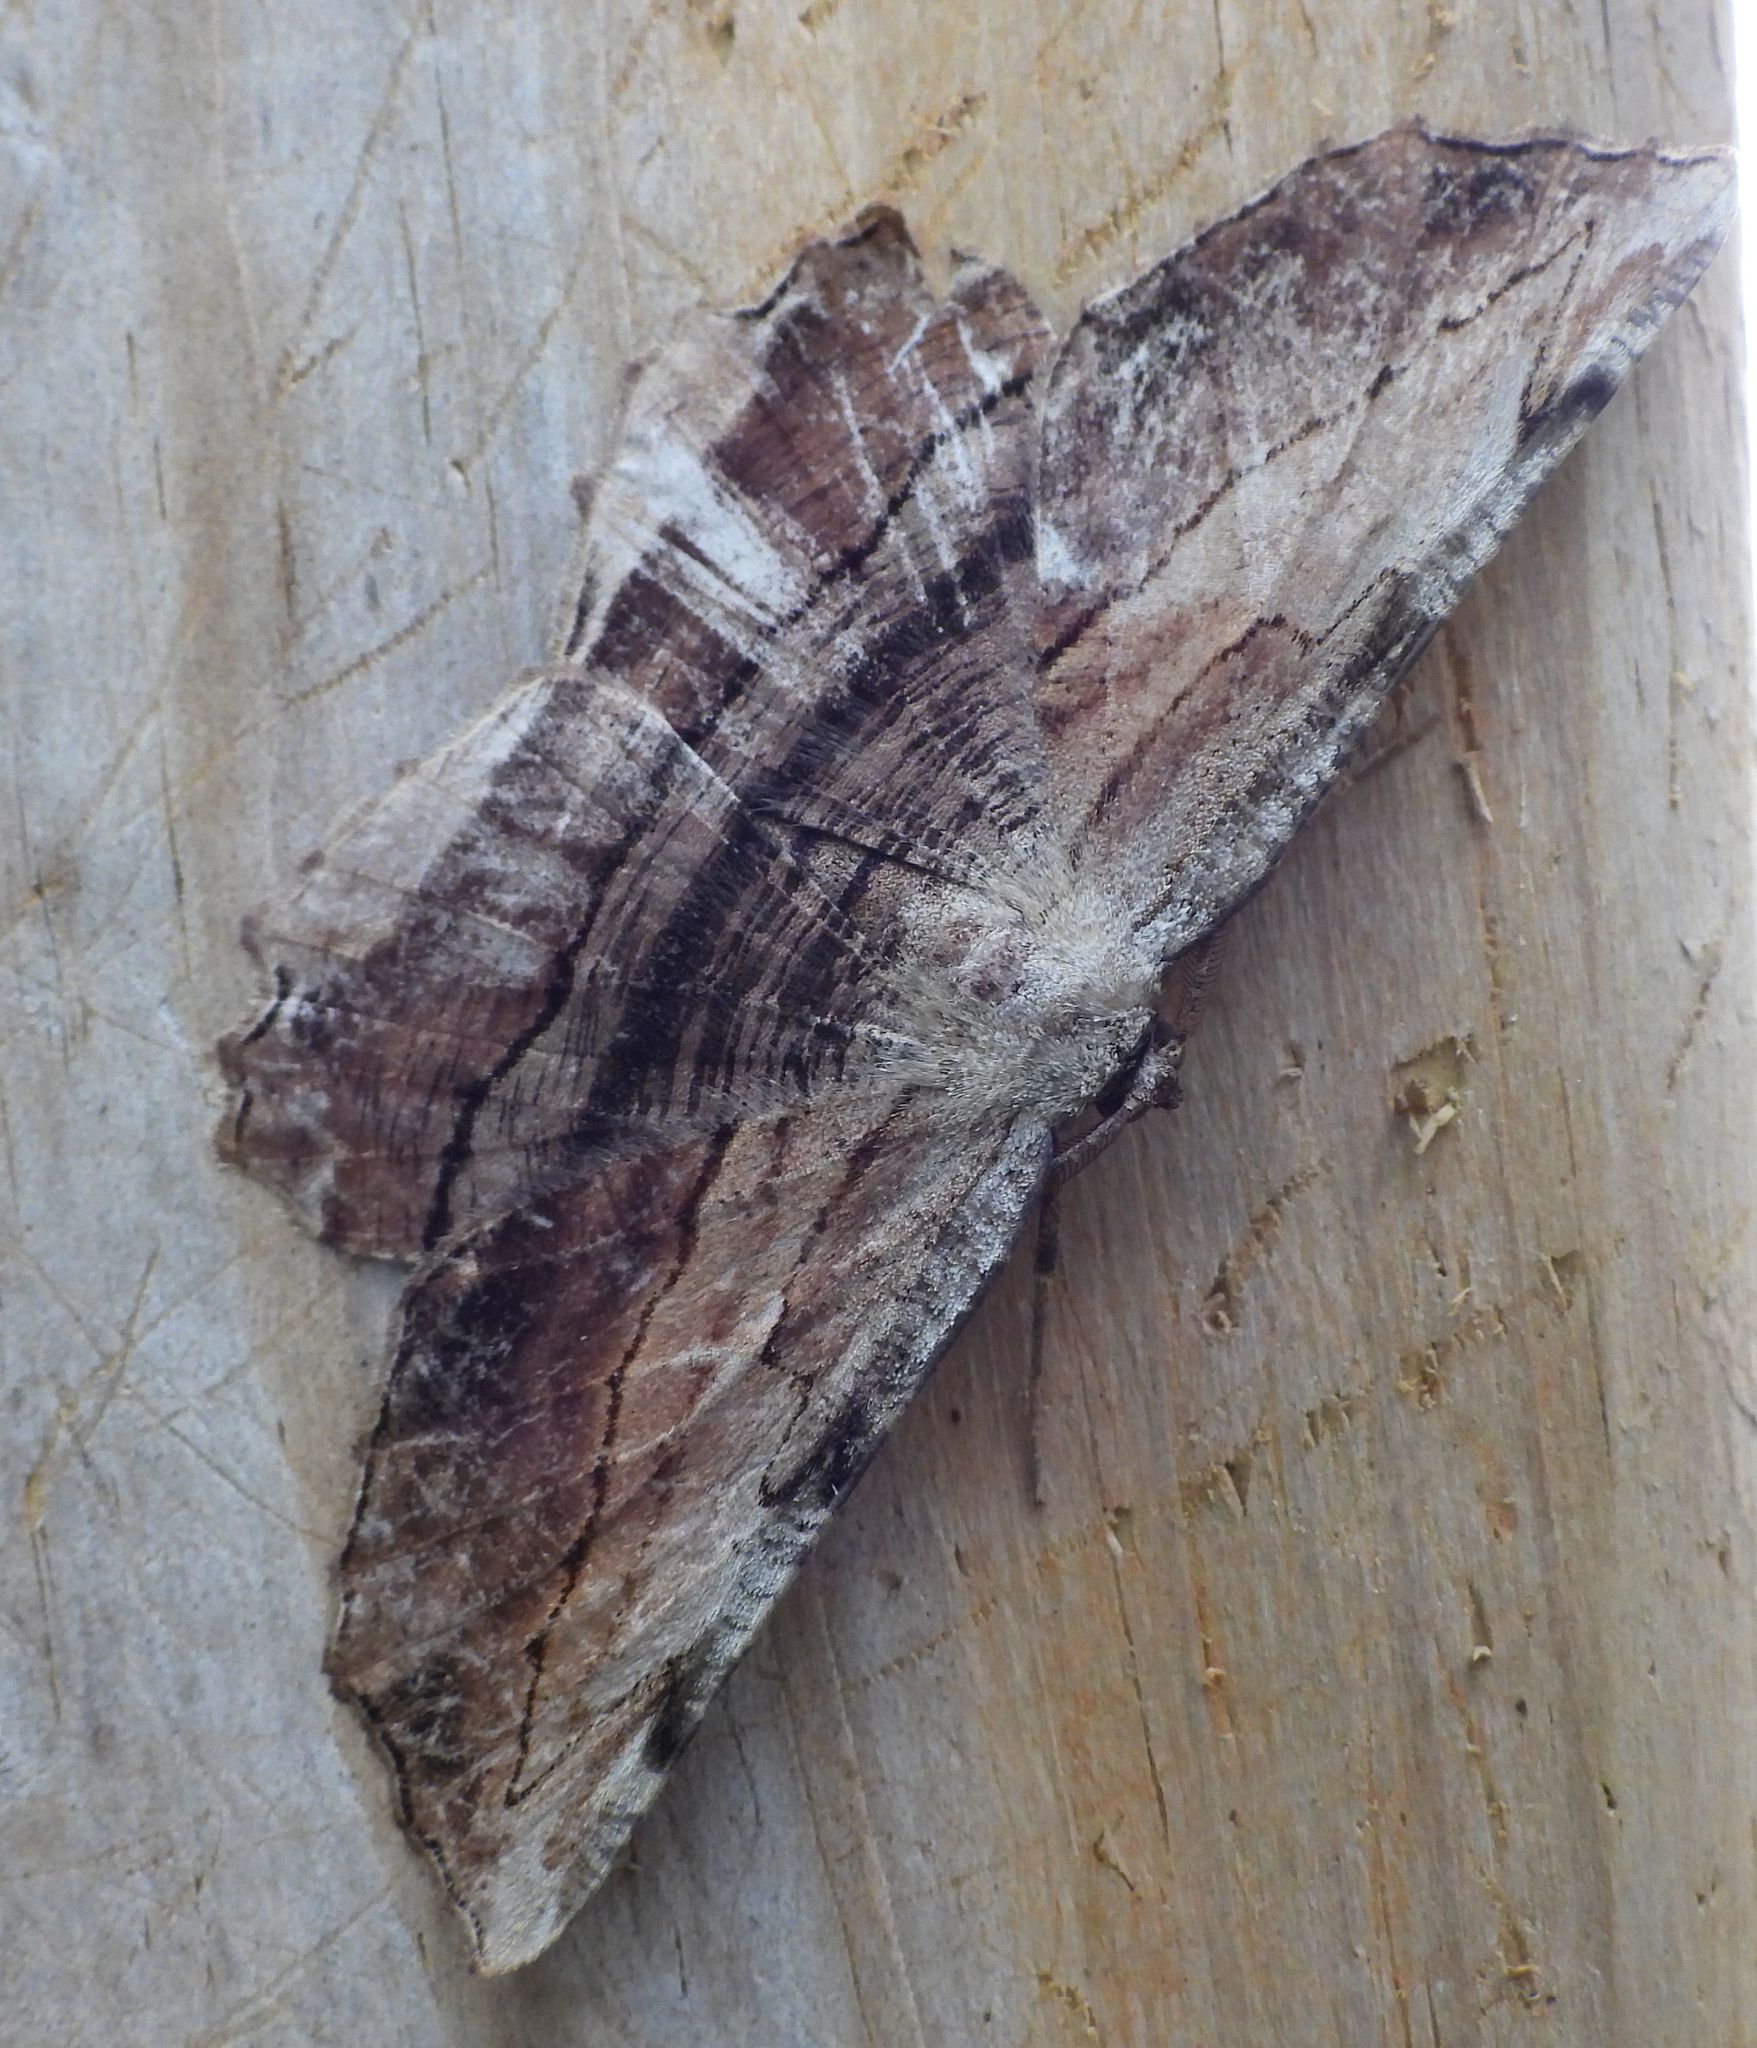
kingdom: Animalia
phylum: Arthropoda
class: Insecta
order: Lepidoptera
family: Geometridae
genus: Lytrosis
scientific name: Lytrosis unitaria
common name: Common lytrosis
